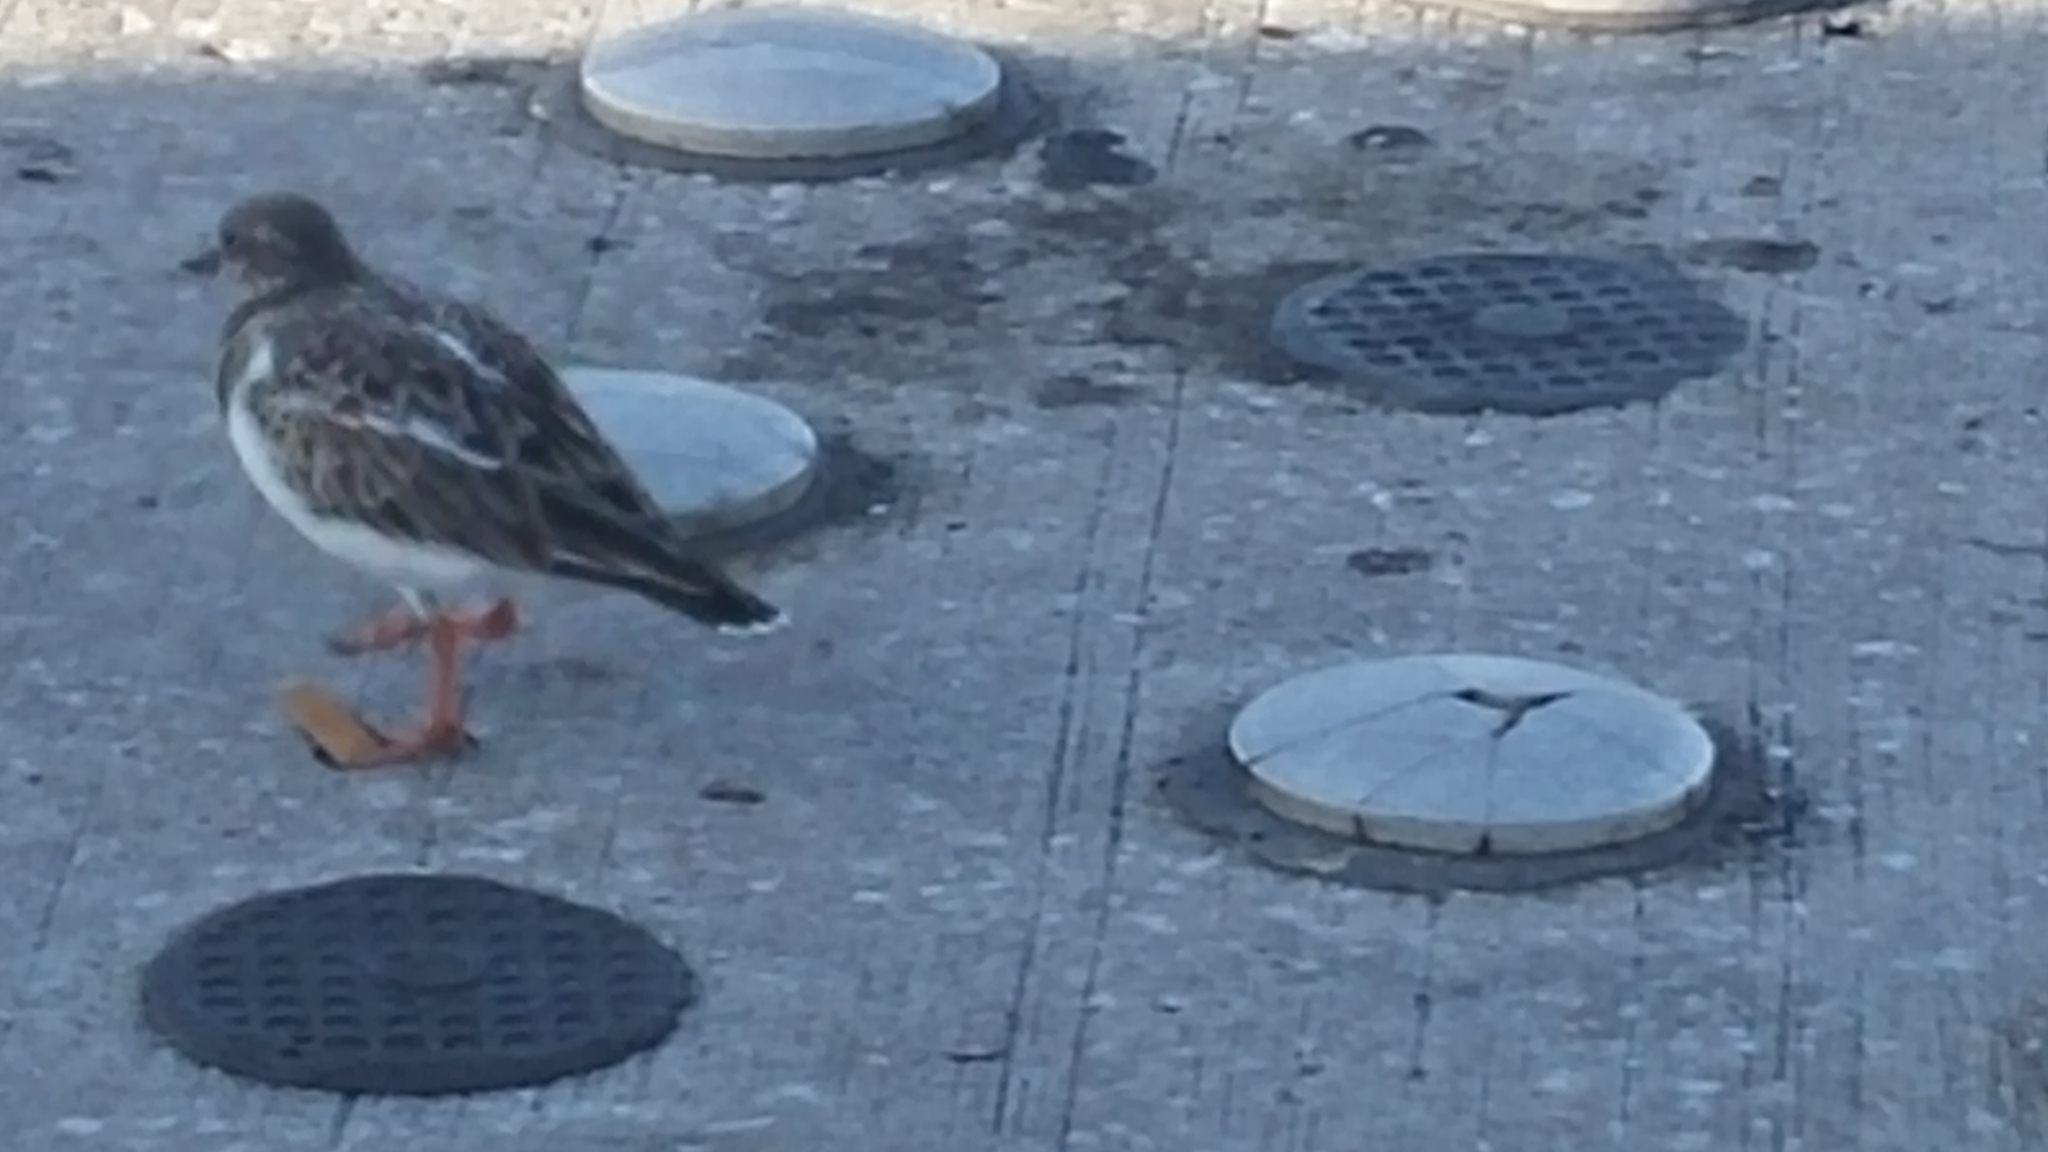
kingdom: Animalia
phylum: Chordata
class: Aves
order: Charadriiformes
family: Scolopacidae
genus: Arenaria
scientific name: Arenaria interpres
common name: Ruddy turnstone
